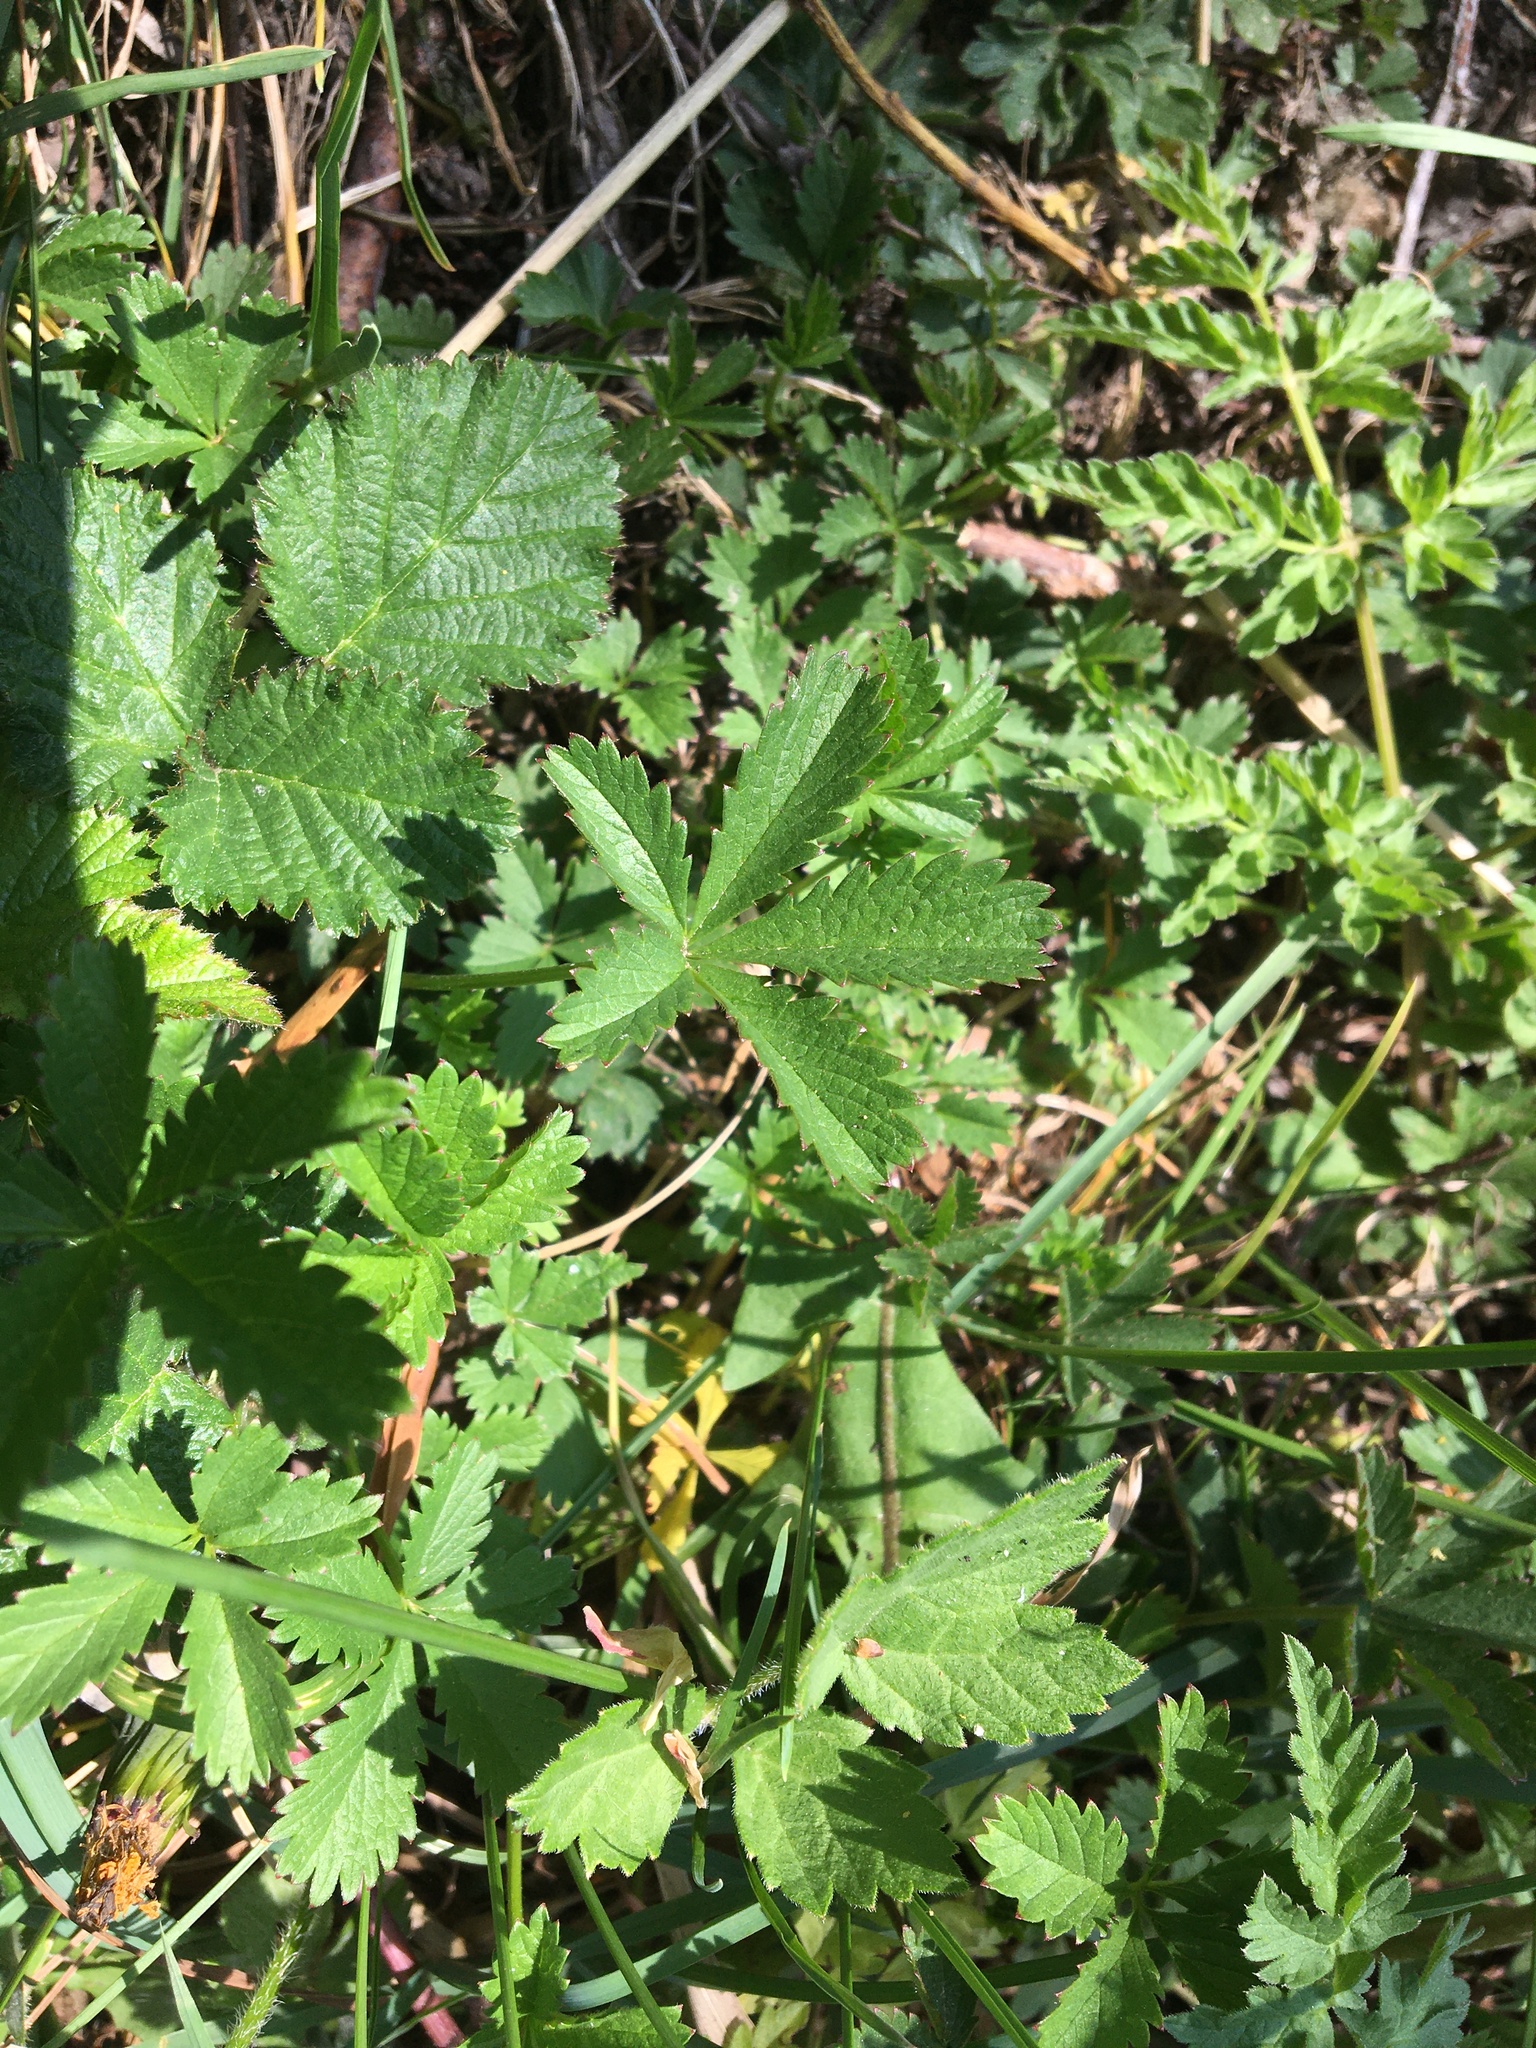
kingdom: Plantae
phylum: Tracheophyta
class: Magnoliopsida
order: Rosales
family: Rosaceae
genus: Potentilla
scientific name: Potentilla reptans
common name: Creeping cinquefoil
